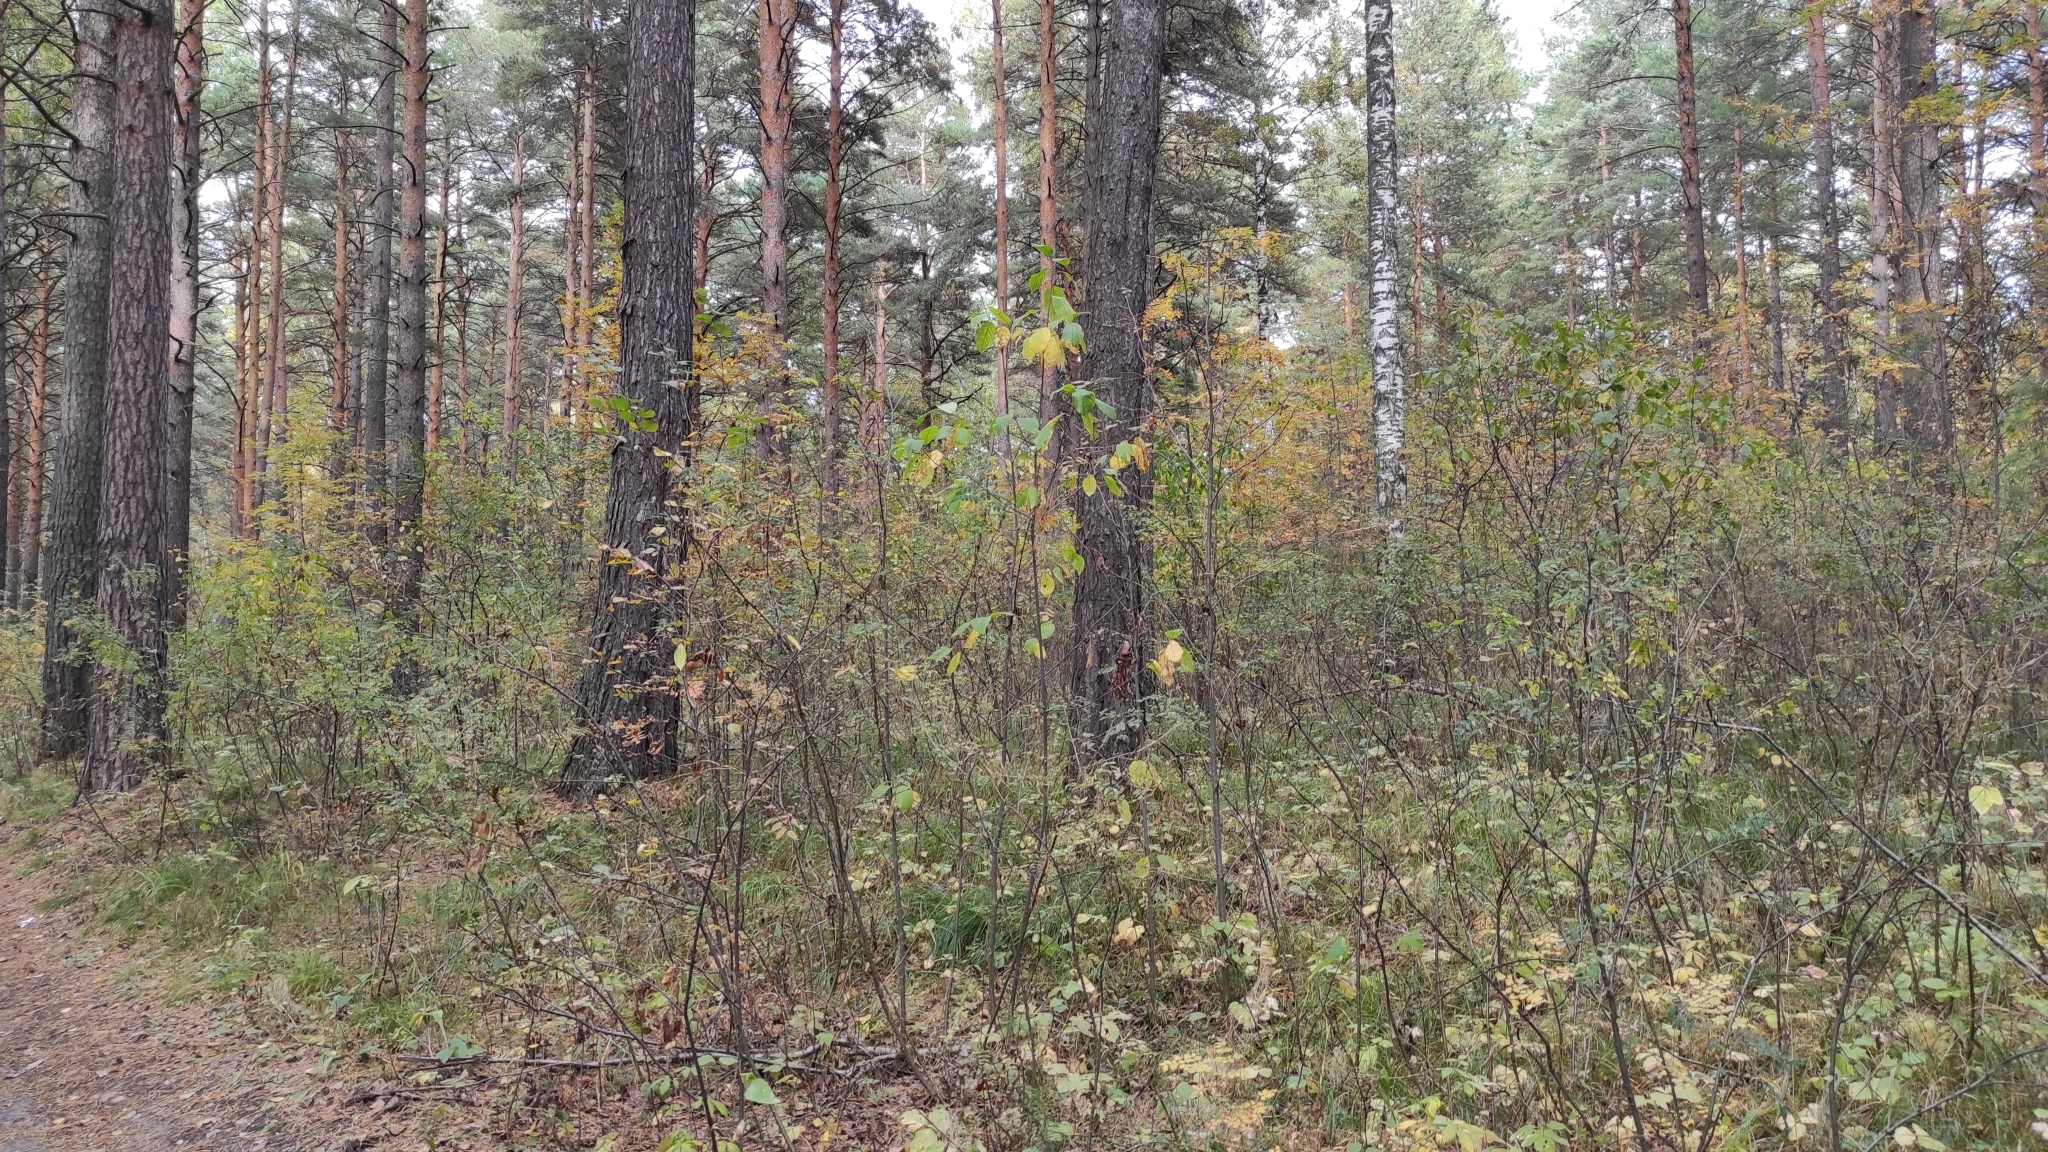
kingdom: Plantae
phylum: Tracheophyta
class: Pinopsida
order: Pinales
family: Pinaceae
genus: Pinus
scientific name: Pinus sylvestris
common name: Scots pine
